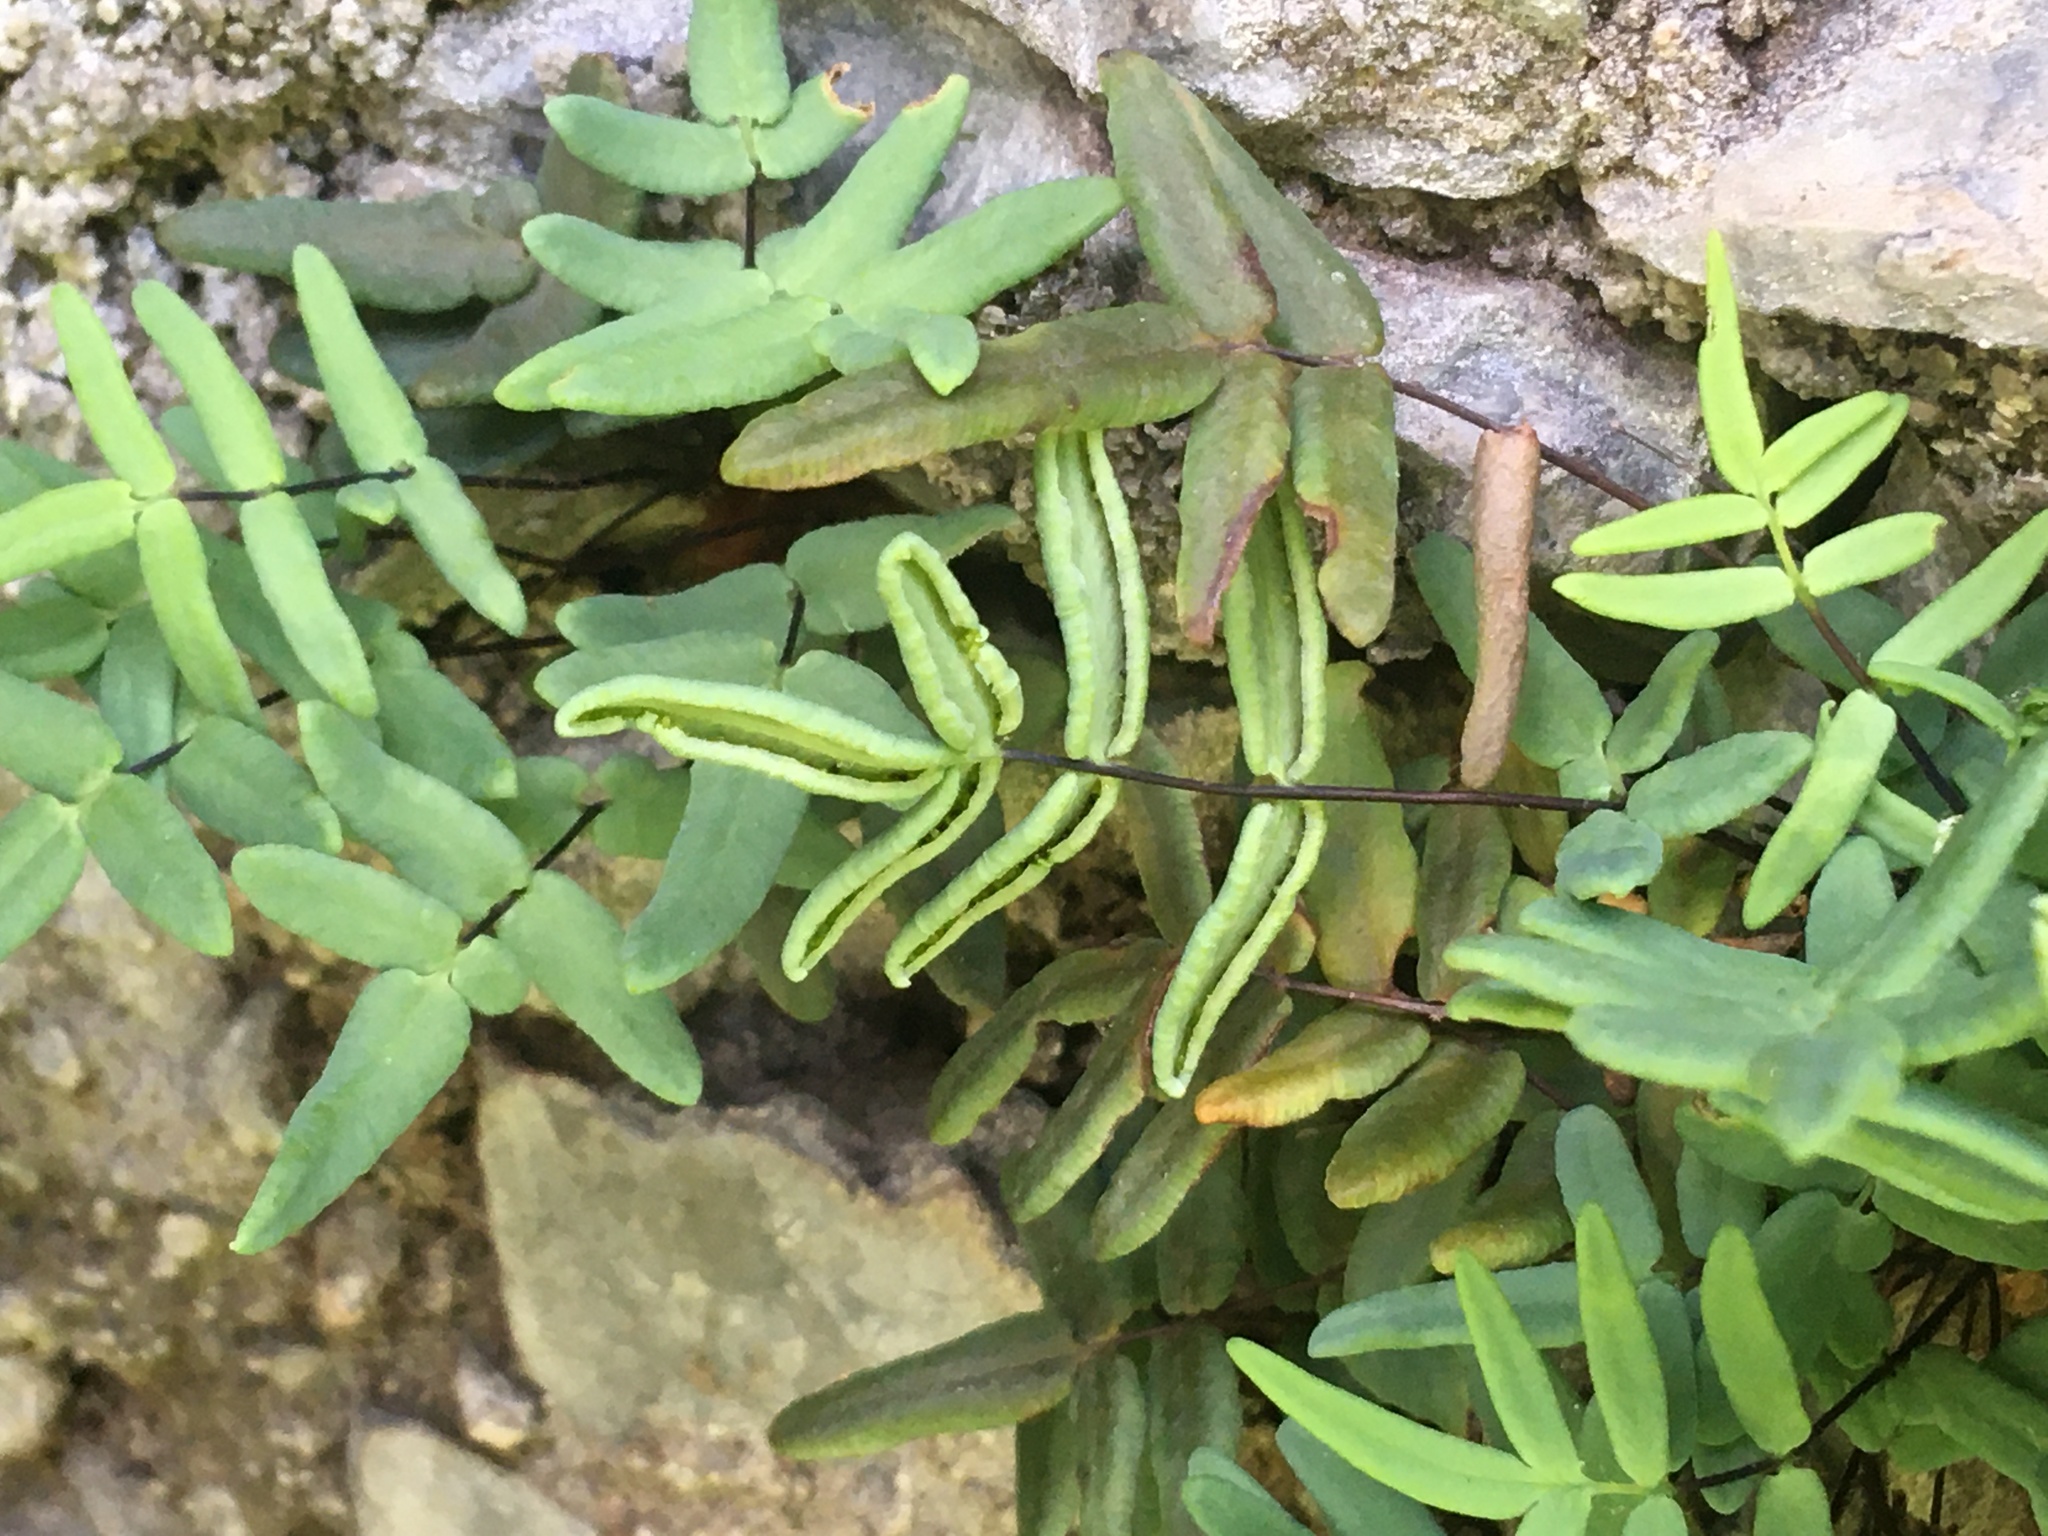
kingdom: Plantae
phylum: Tracheophyta
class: Polypodiopsida
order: Polypodiales
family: Pteridaceae
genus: Pellaea
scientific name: Pellaea glabella
